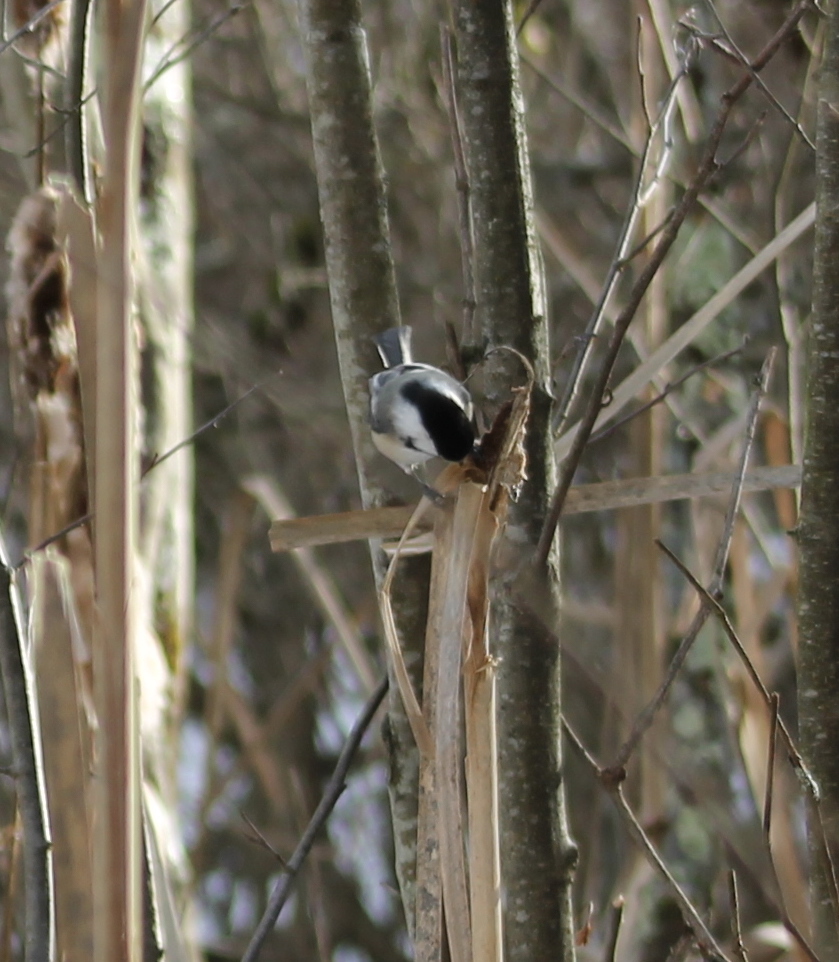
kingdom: Animalia
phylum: Chordata
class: Aves
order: Passeriformes
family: Paridae
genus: Poecile
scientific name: Poecile atricapillus
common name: Black-capped chickadee
